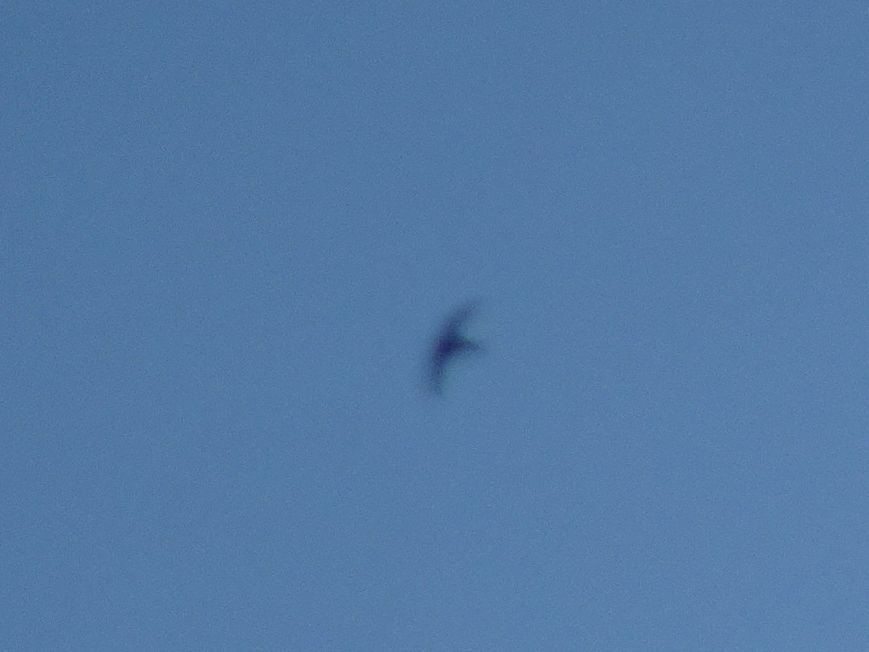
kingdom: Animalia
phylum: Chordata
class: Aves
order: Apodiformes
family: Apodidae
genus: Apus
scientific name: Apus apus
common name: Common swift
